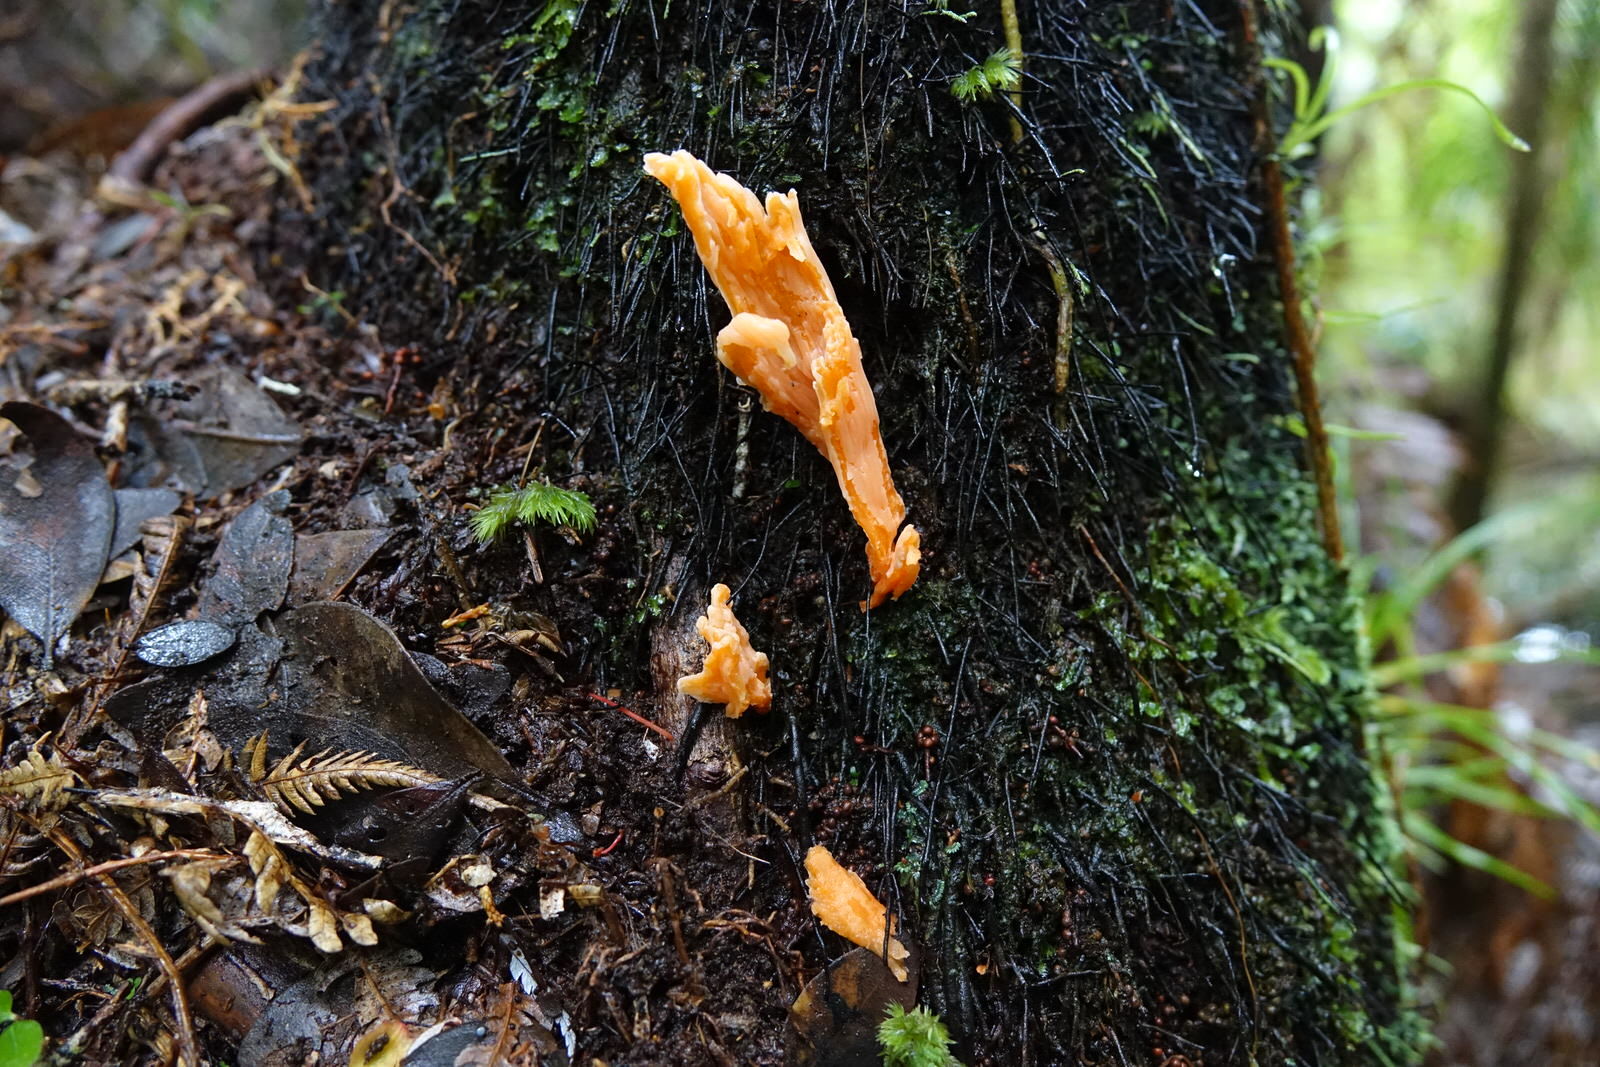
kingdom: Fungi
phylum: Basidiomycota
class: Agaricomycetes
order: Agaricales
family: Clavariaceae
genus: Clavulinopsis
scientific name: Clavulinopsis sulcata
